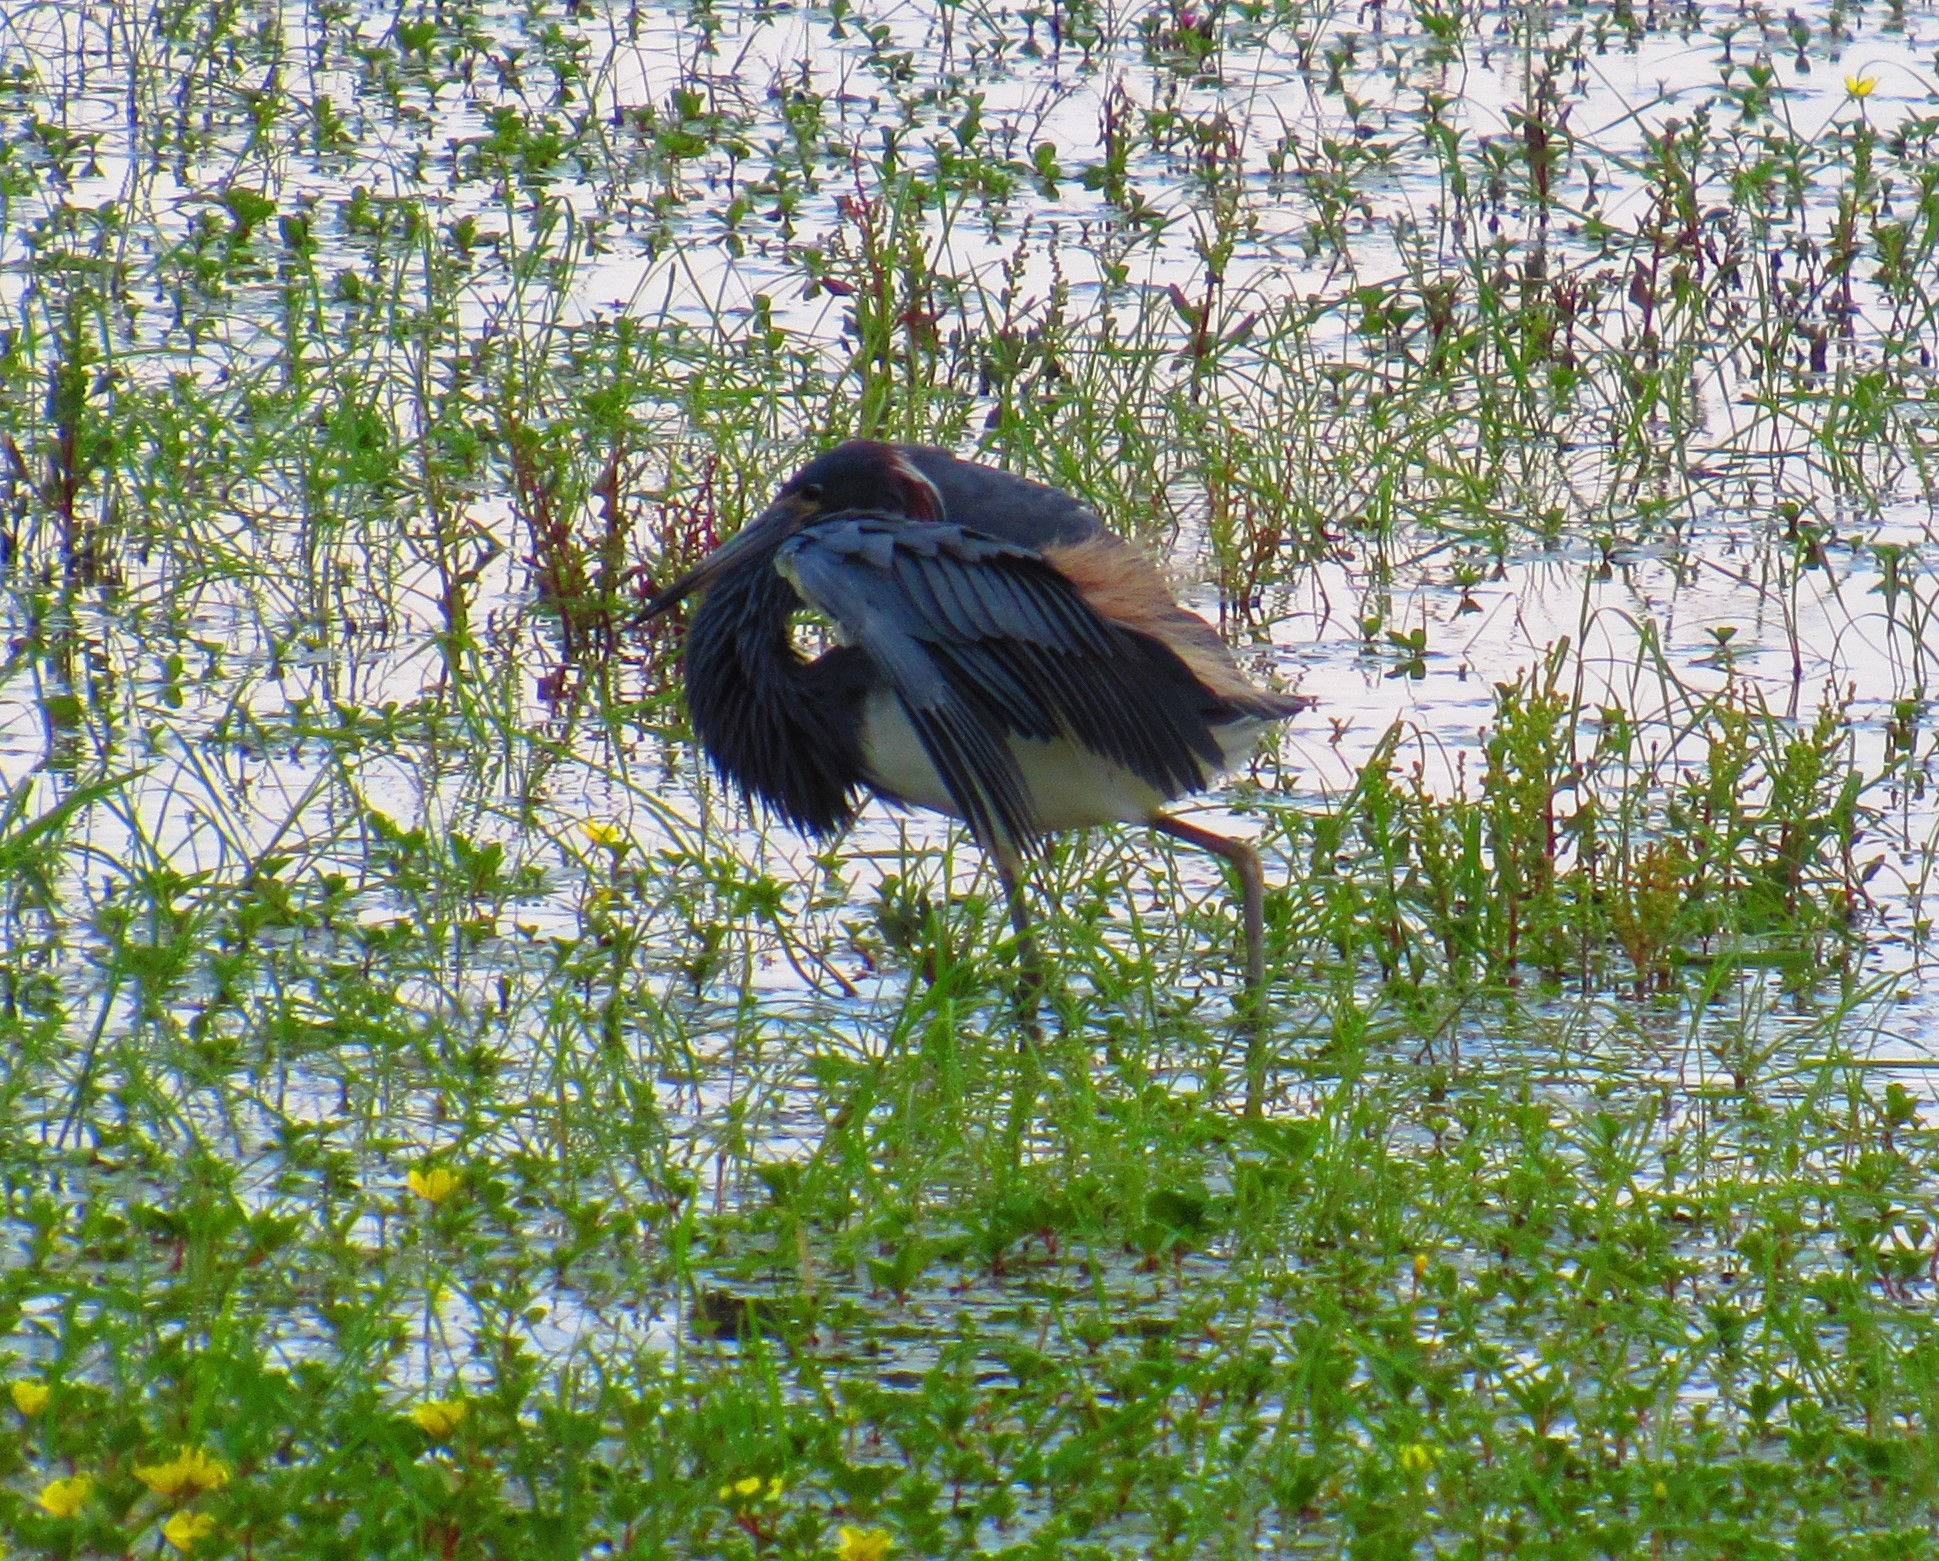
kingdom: Animalia
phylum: Chordata
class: Aves
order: Pelecaniformes
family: Ardeidae
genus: Egretta
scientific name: Egretta tricolor
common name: Tricolored heron
